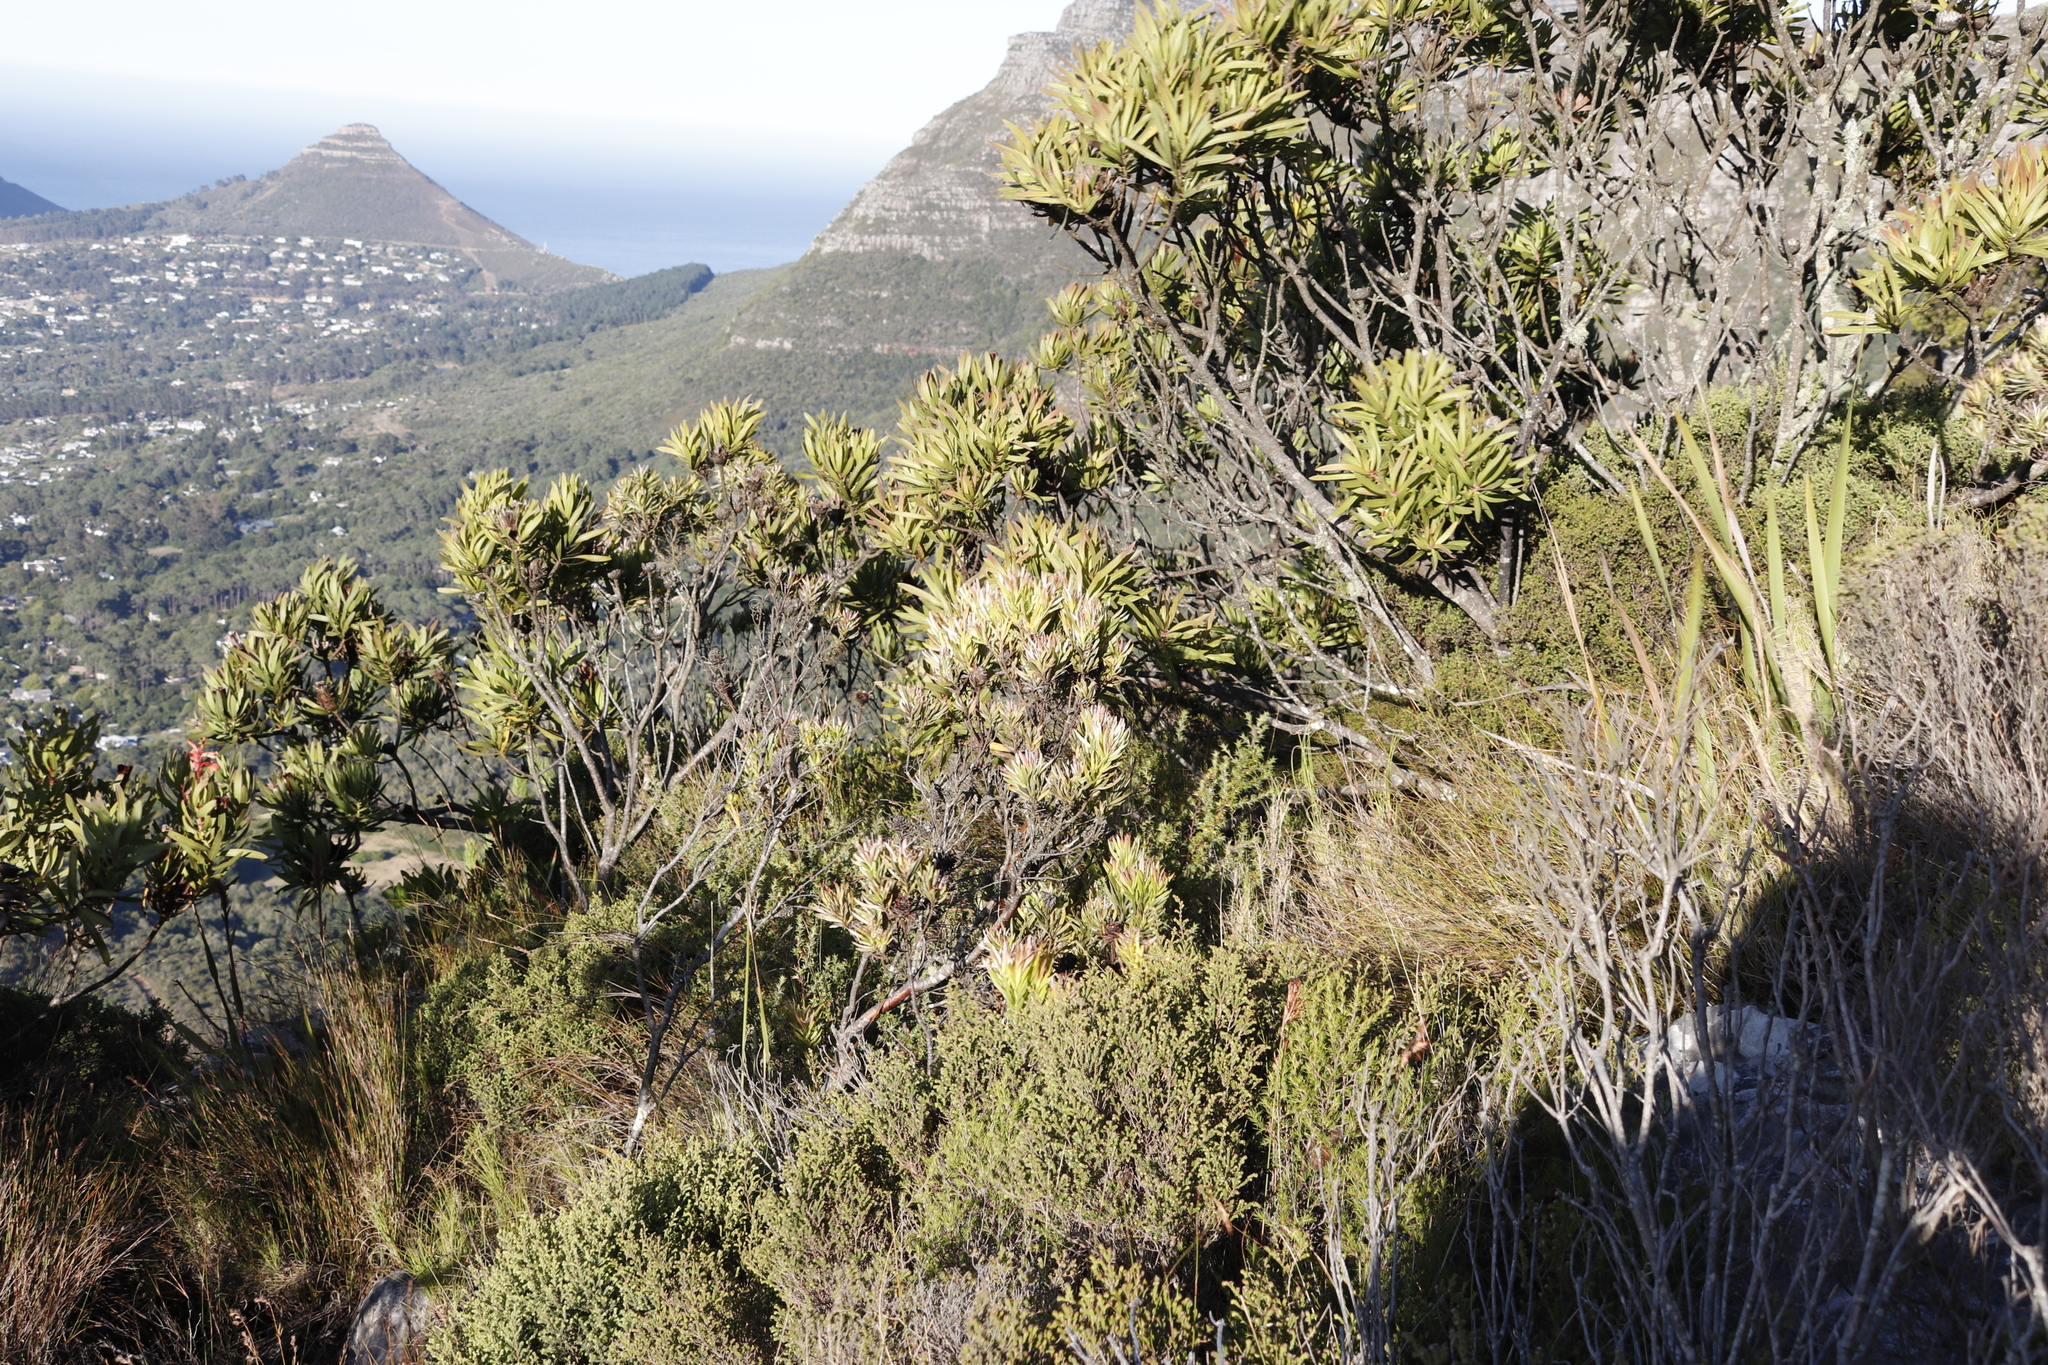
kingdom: Plantae
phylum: Tracheophyta
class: Magnoliopsida
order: Proteales
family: Proteaceae
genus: Leucadendron
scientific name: Leucadendron xanthoconus
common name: Sickle-leaf conebush
